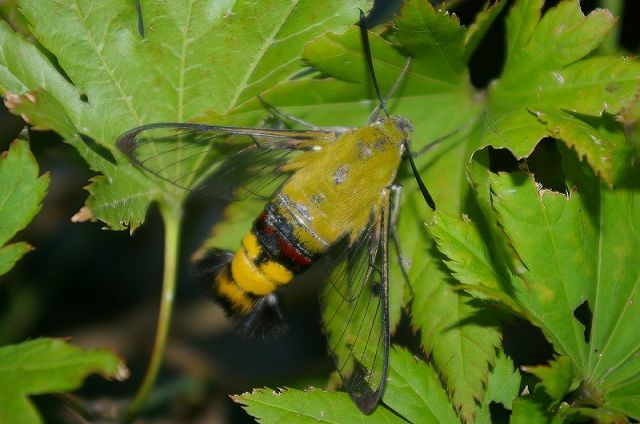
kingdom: Animalia
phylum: Arthropoda
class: Insecta
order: Lepidoptera
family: Sphingidae
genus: Cephonodes
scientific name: Cephonodes hylas
